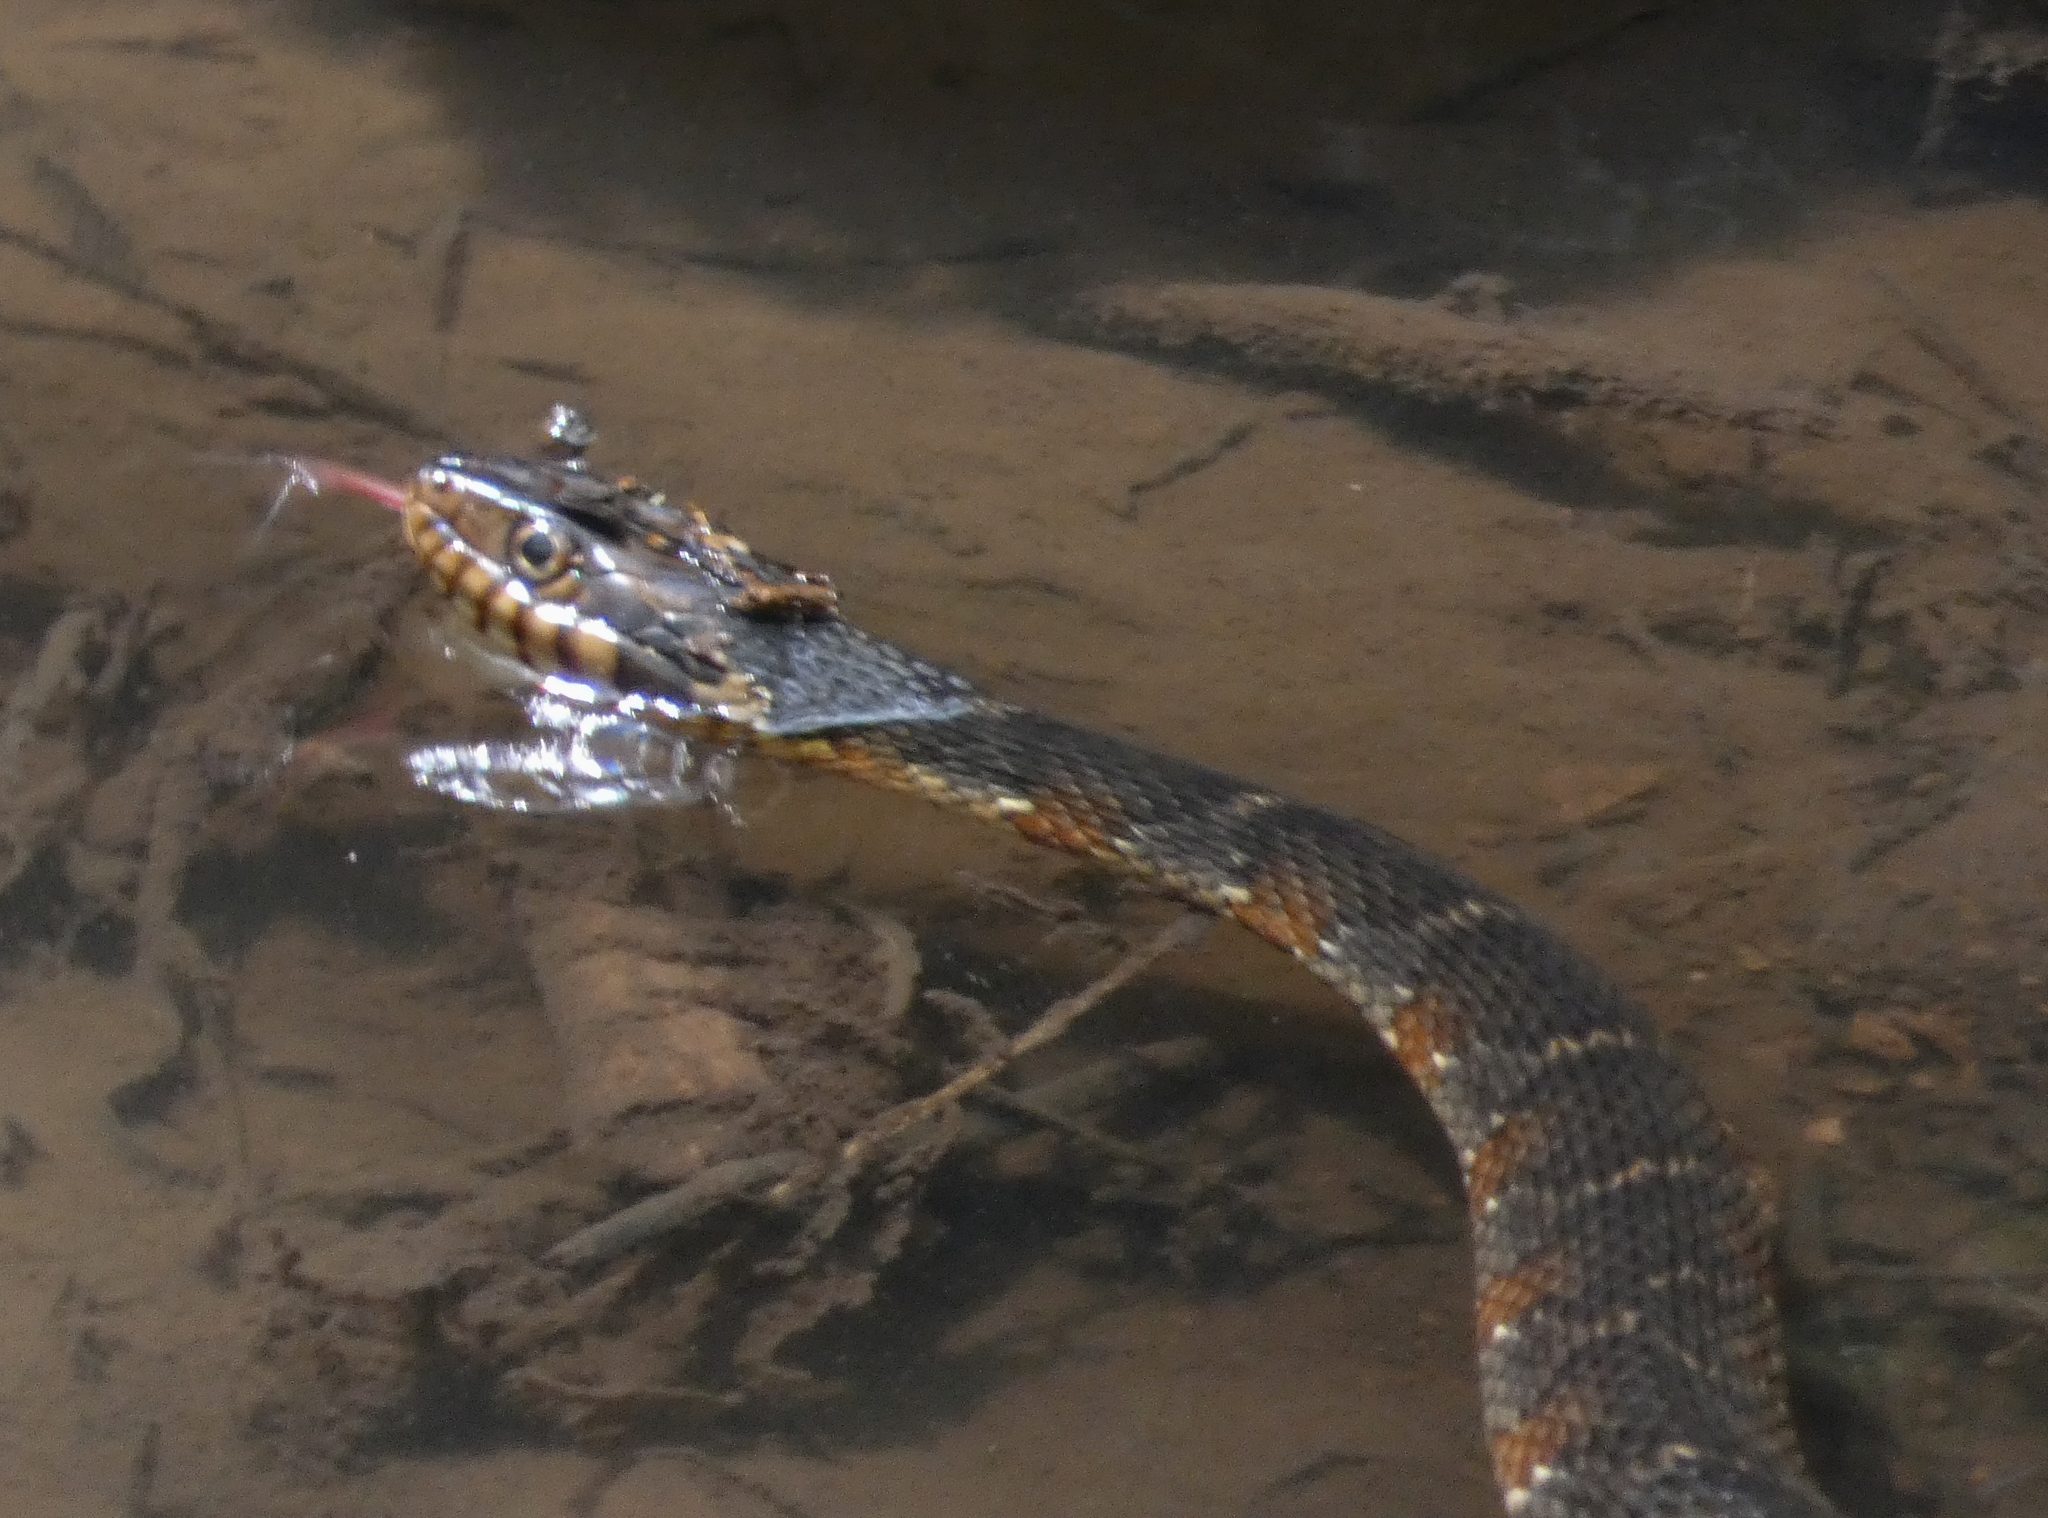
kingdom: Animalia
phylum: Chordata
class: Squamata
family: Colubridae
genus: Nerodia
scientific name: Nerodia fasciata
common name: Southern water snake
